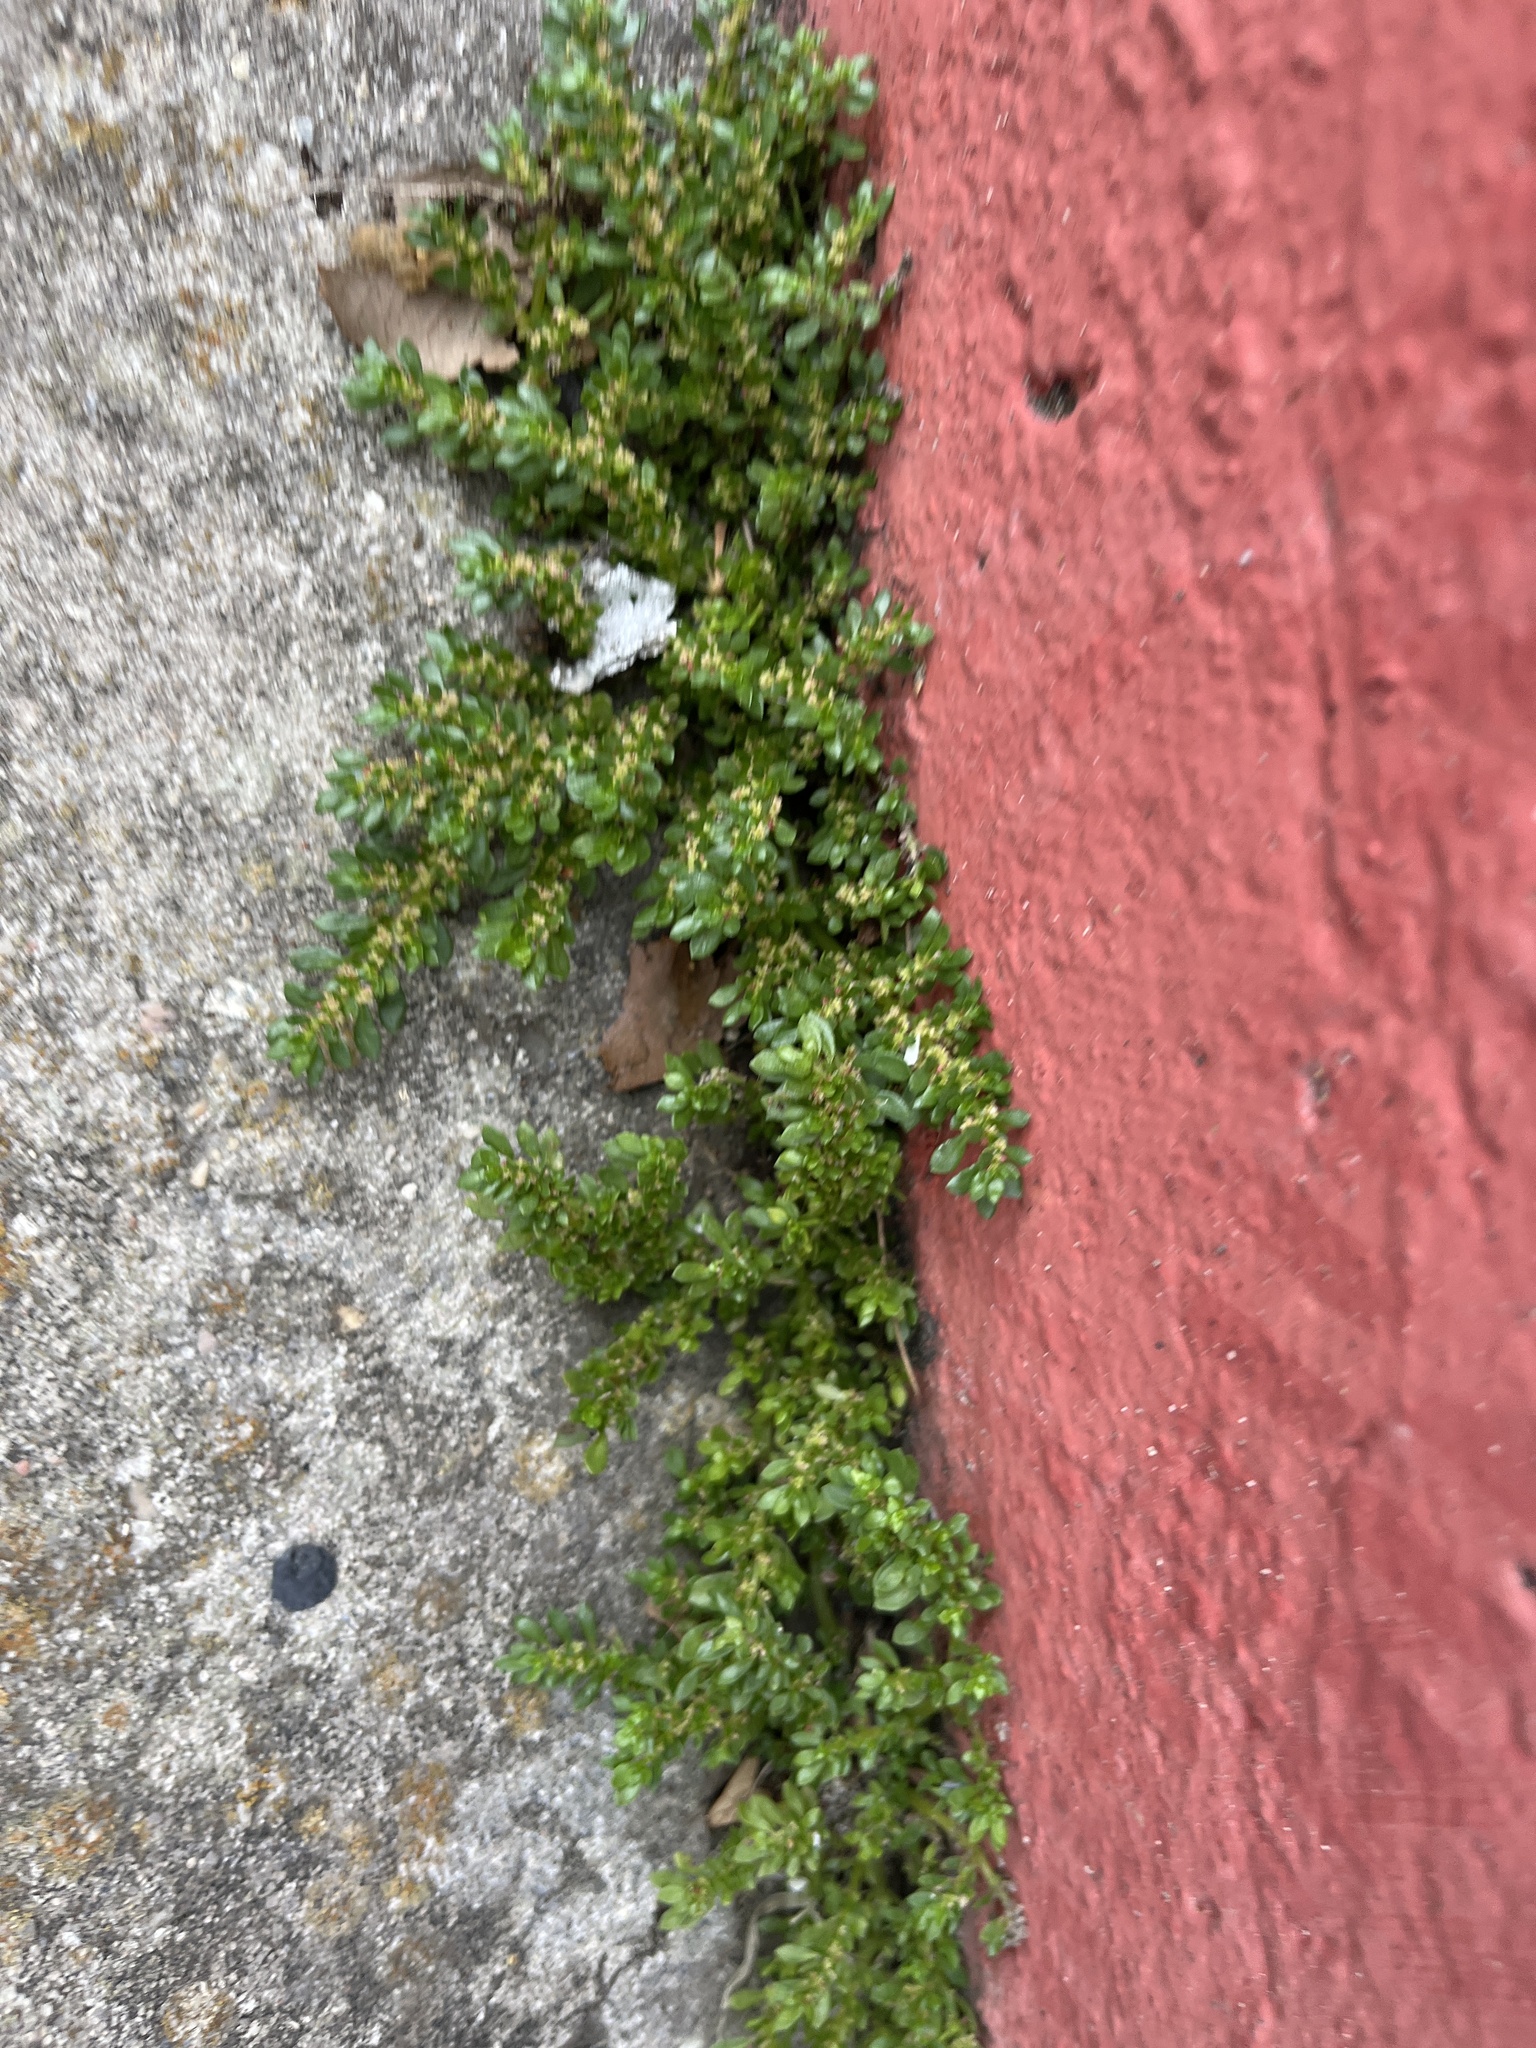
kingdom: Plantae
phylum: Tracheophyta
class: Magnoliopsida
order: Rosales
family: Urticaceae
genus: Pilea
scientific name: Pilea microphylla
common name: Artillery-plant
